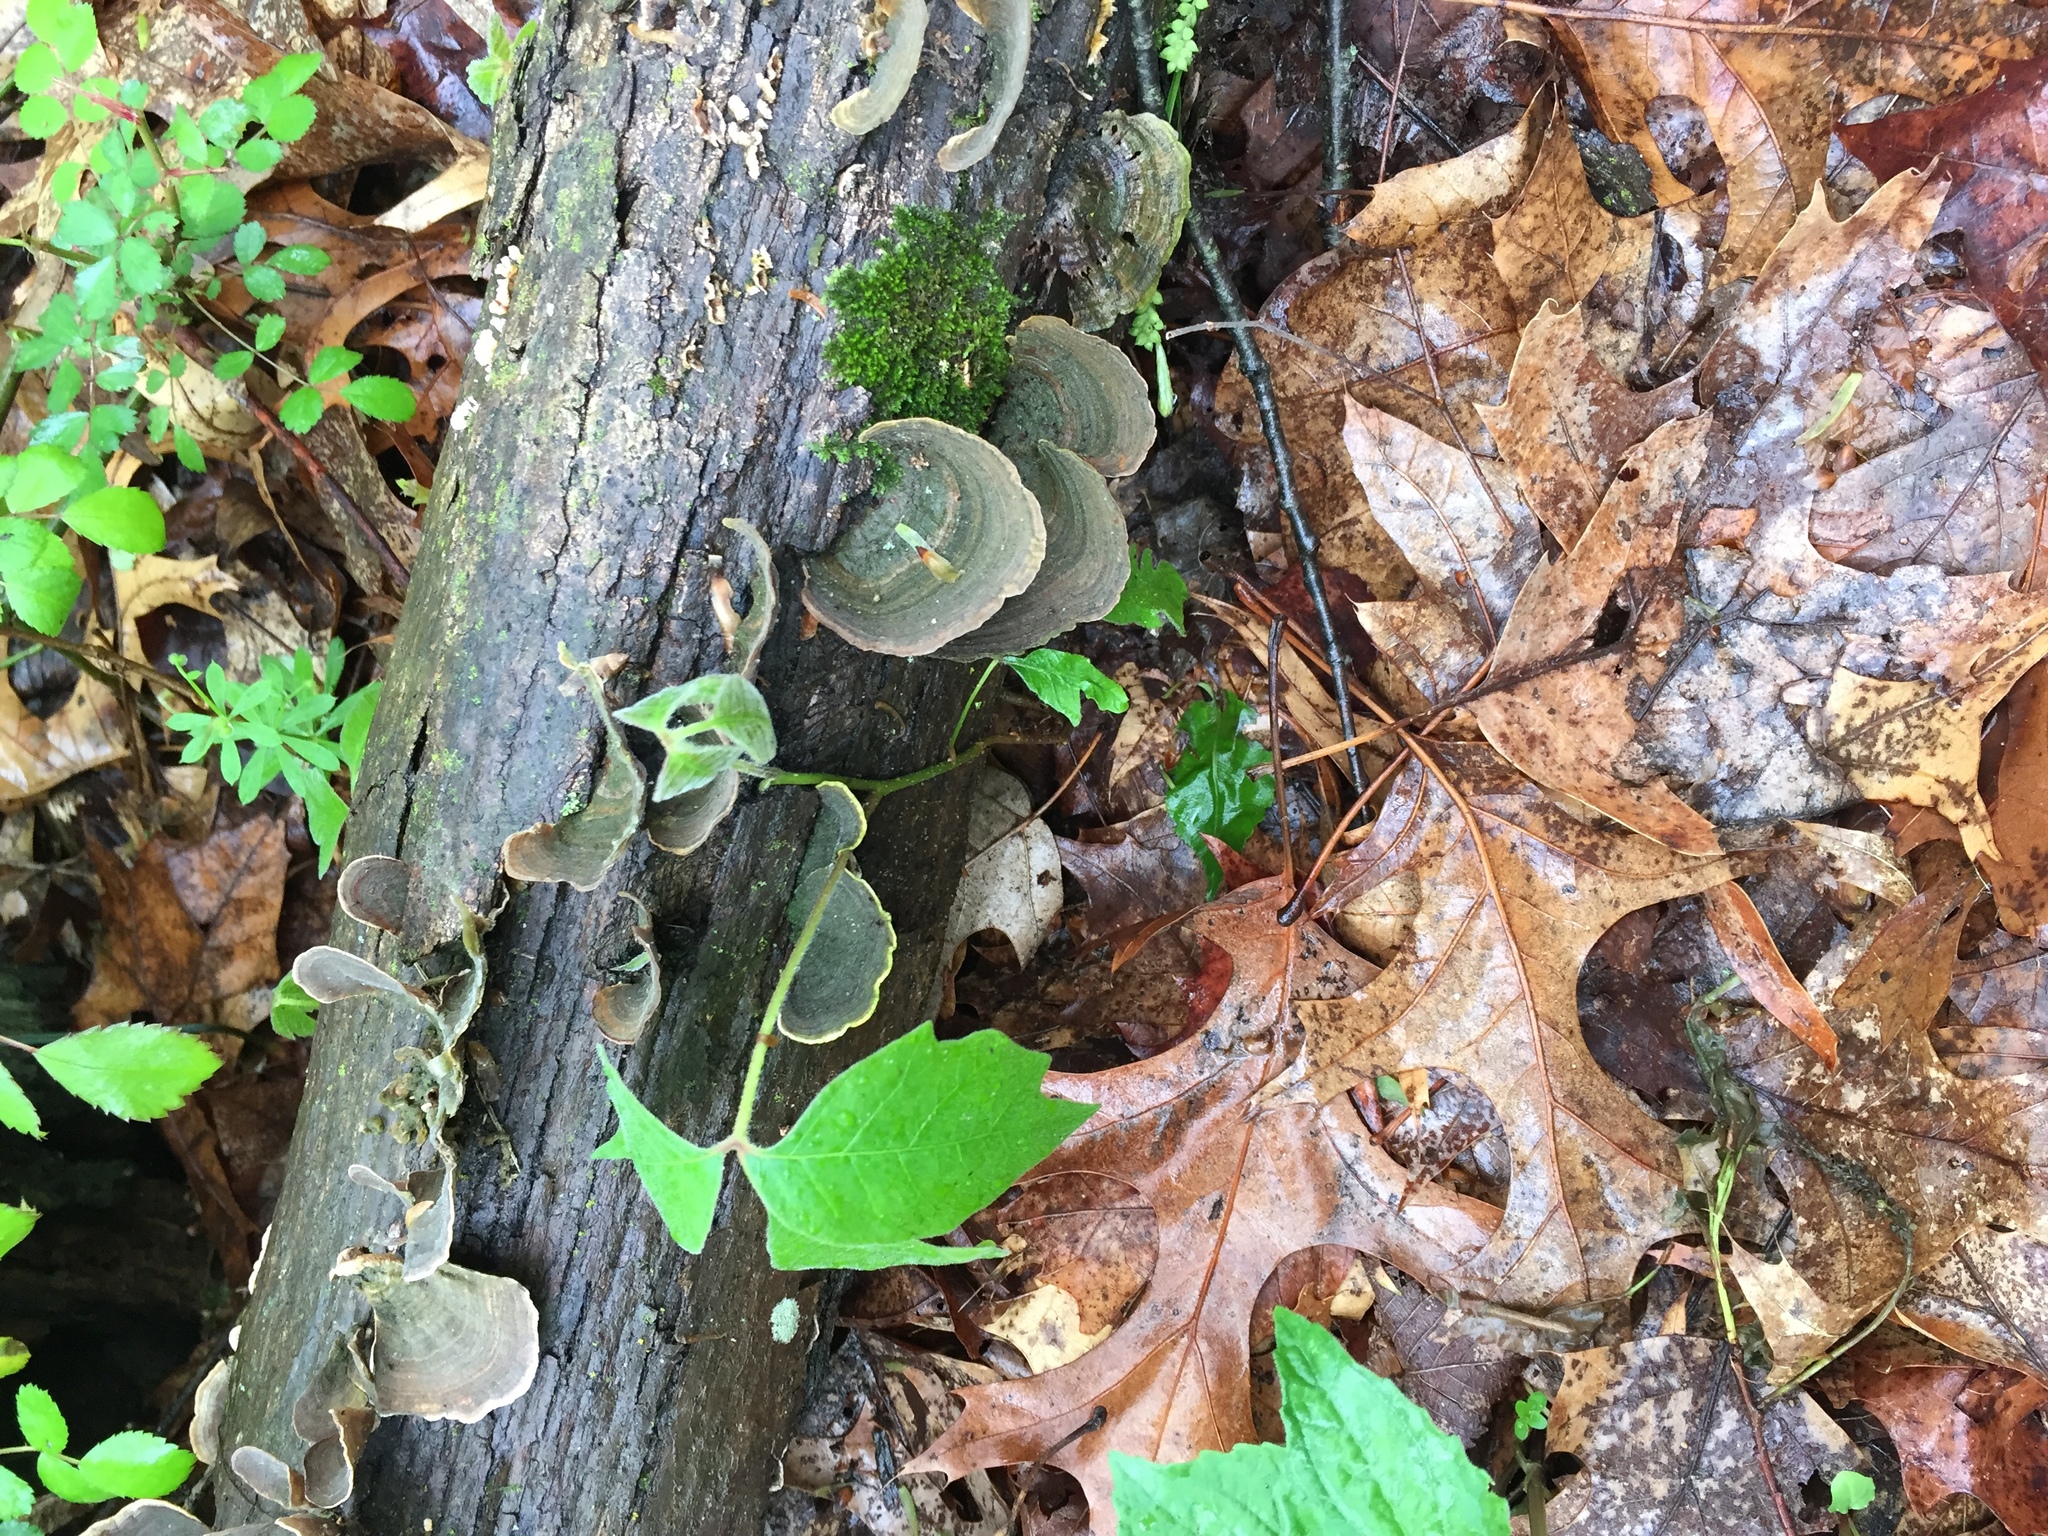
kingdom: Fungi
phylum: Basidiomycota
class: Agaricomycetes
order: Russulales
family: Stereaceae
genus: Stereum
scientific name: Stereum ostrea
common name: False turkeytail
